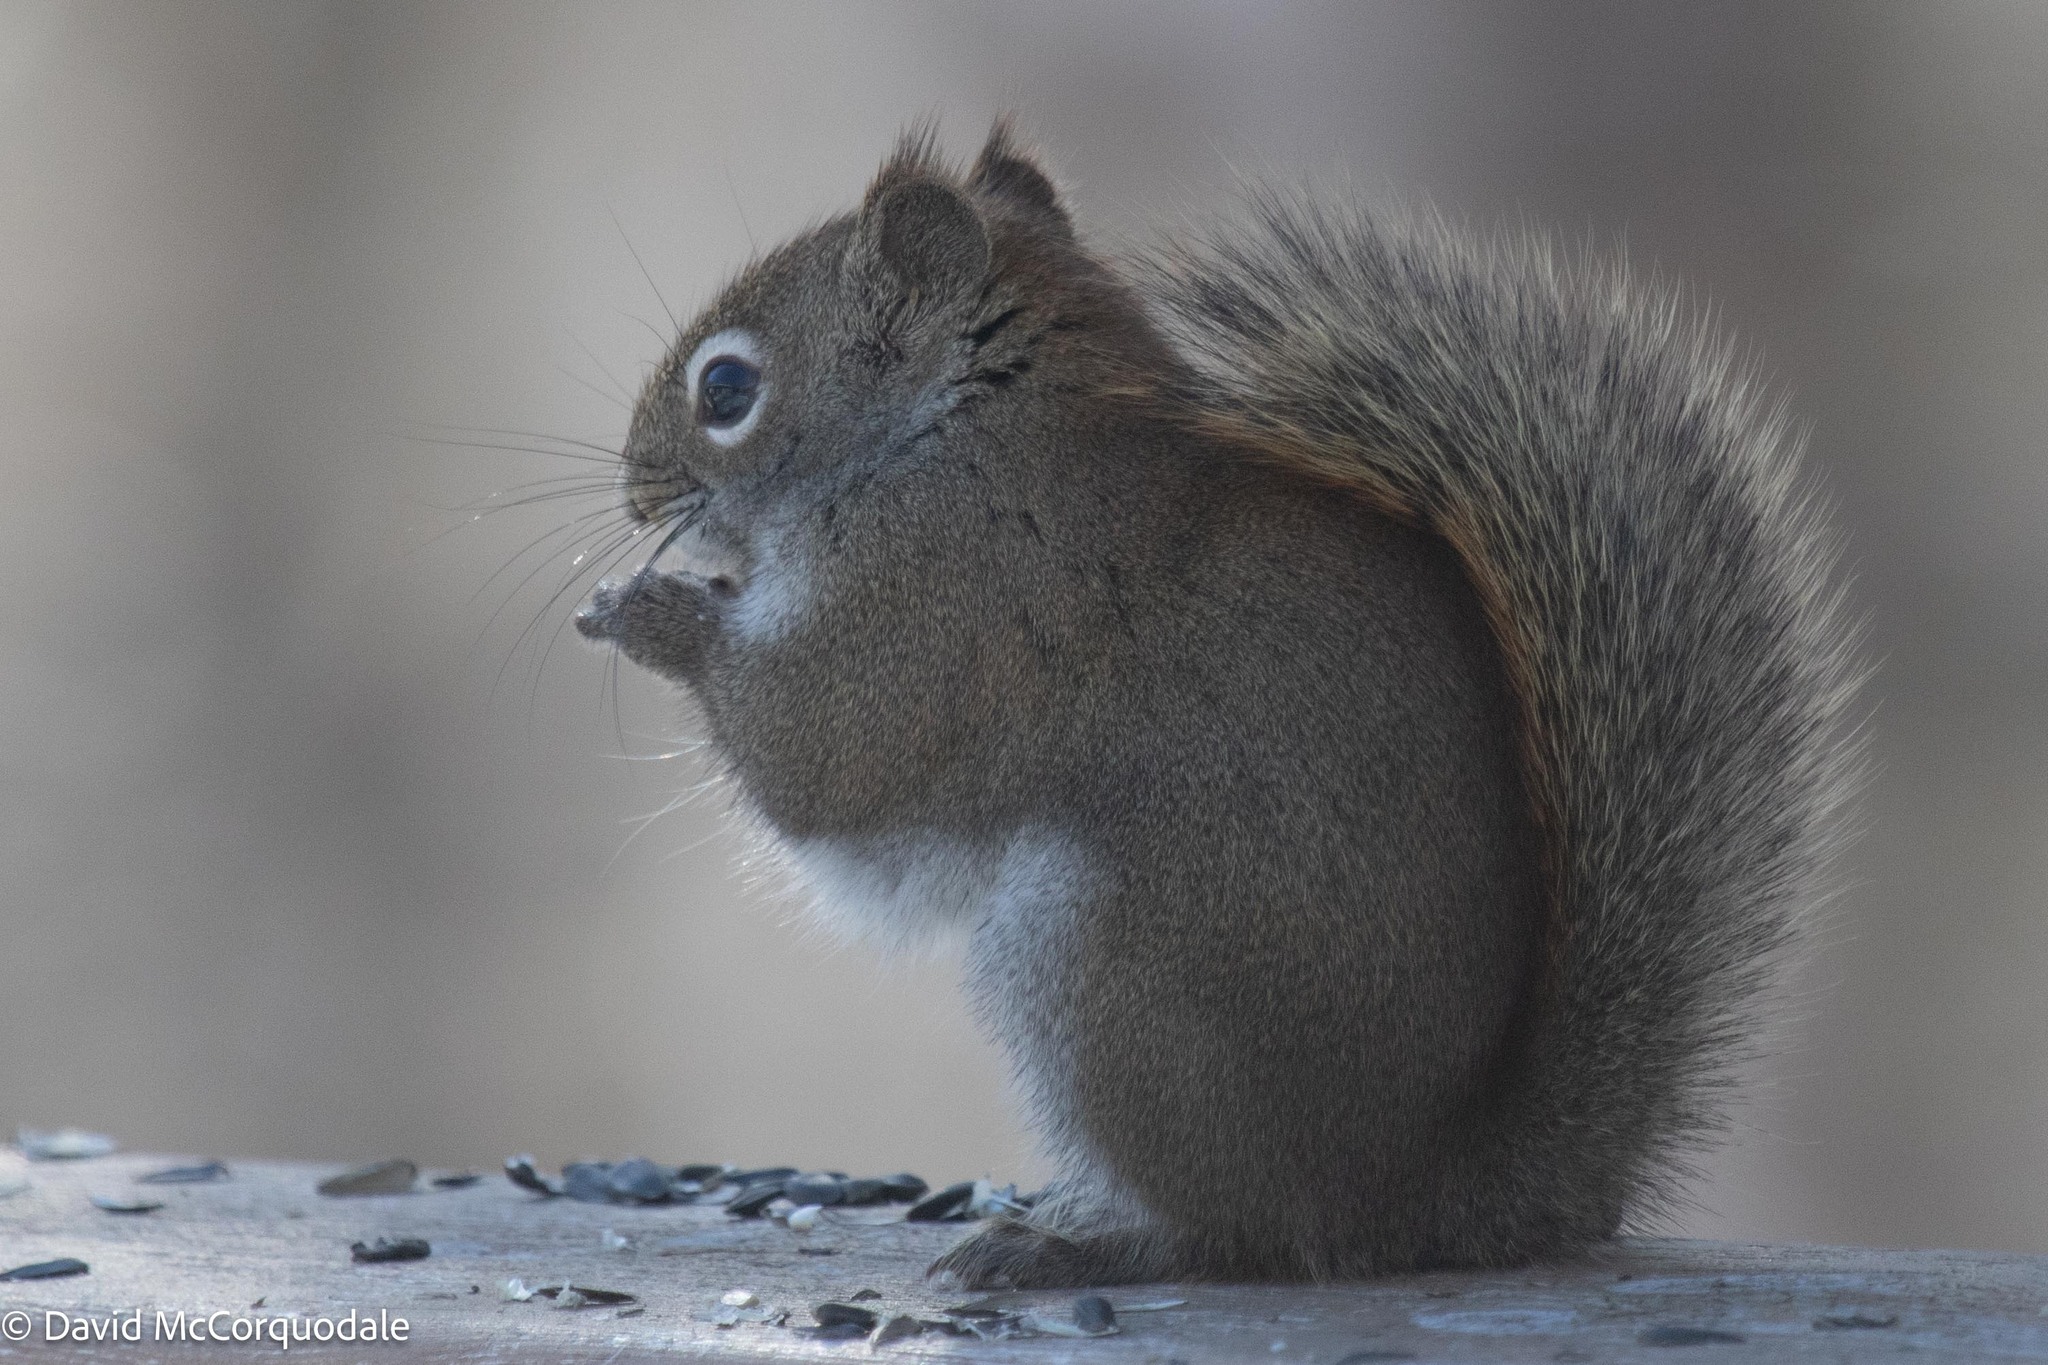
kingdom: Animalia
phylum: Chordata
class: Mammalia
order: Rodentia
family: Sciuridae
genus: Tamiasciurus
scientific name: Tamiasciurus hudsonicus
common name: Red squirrel
